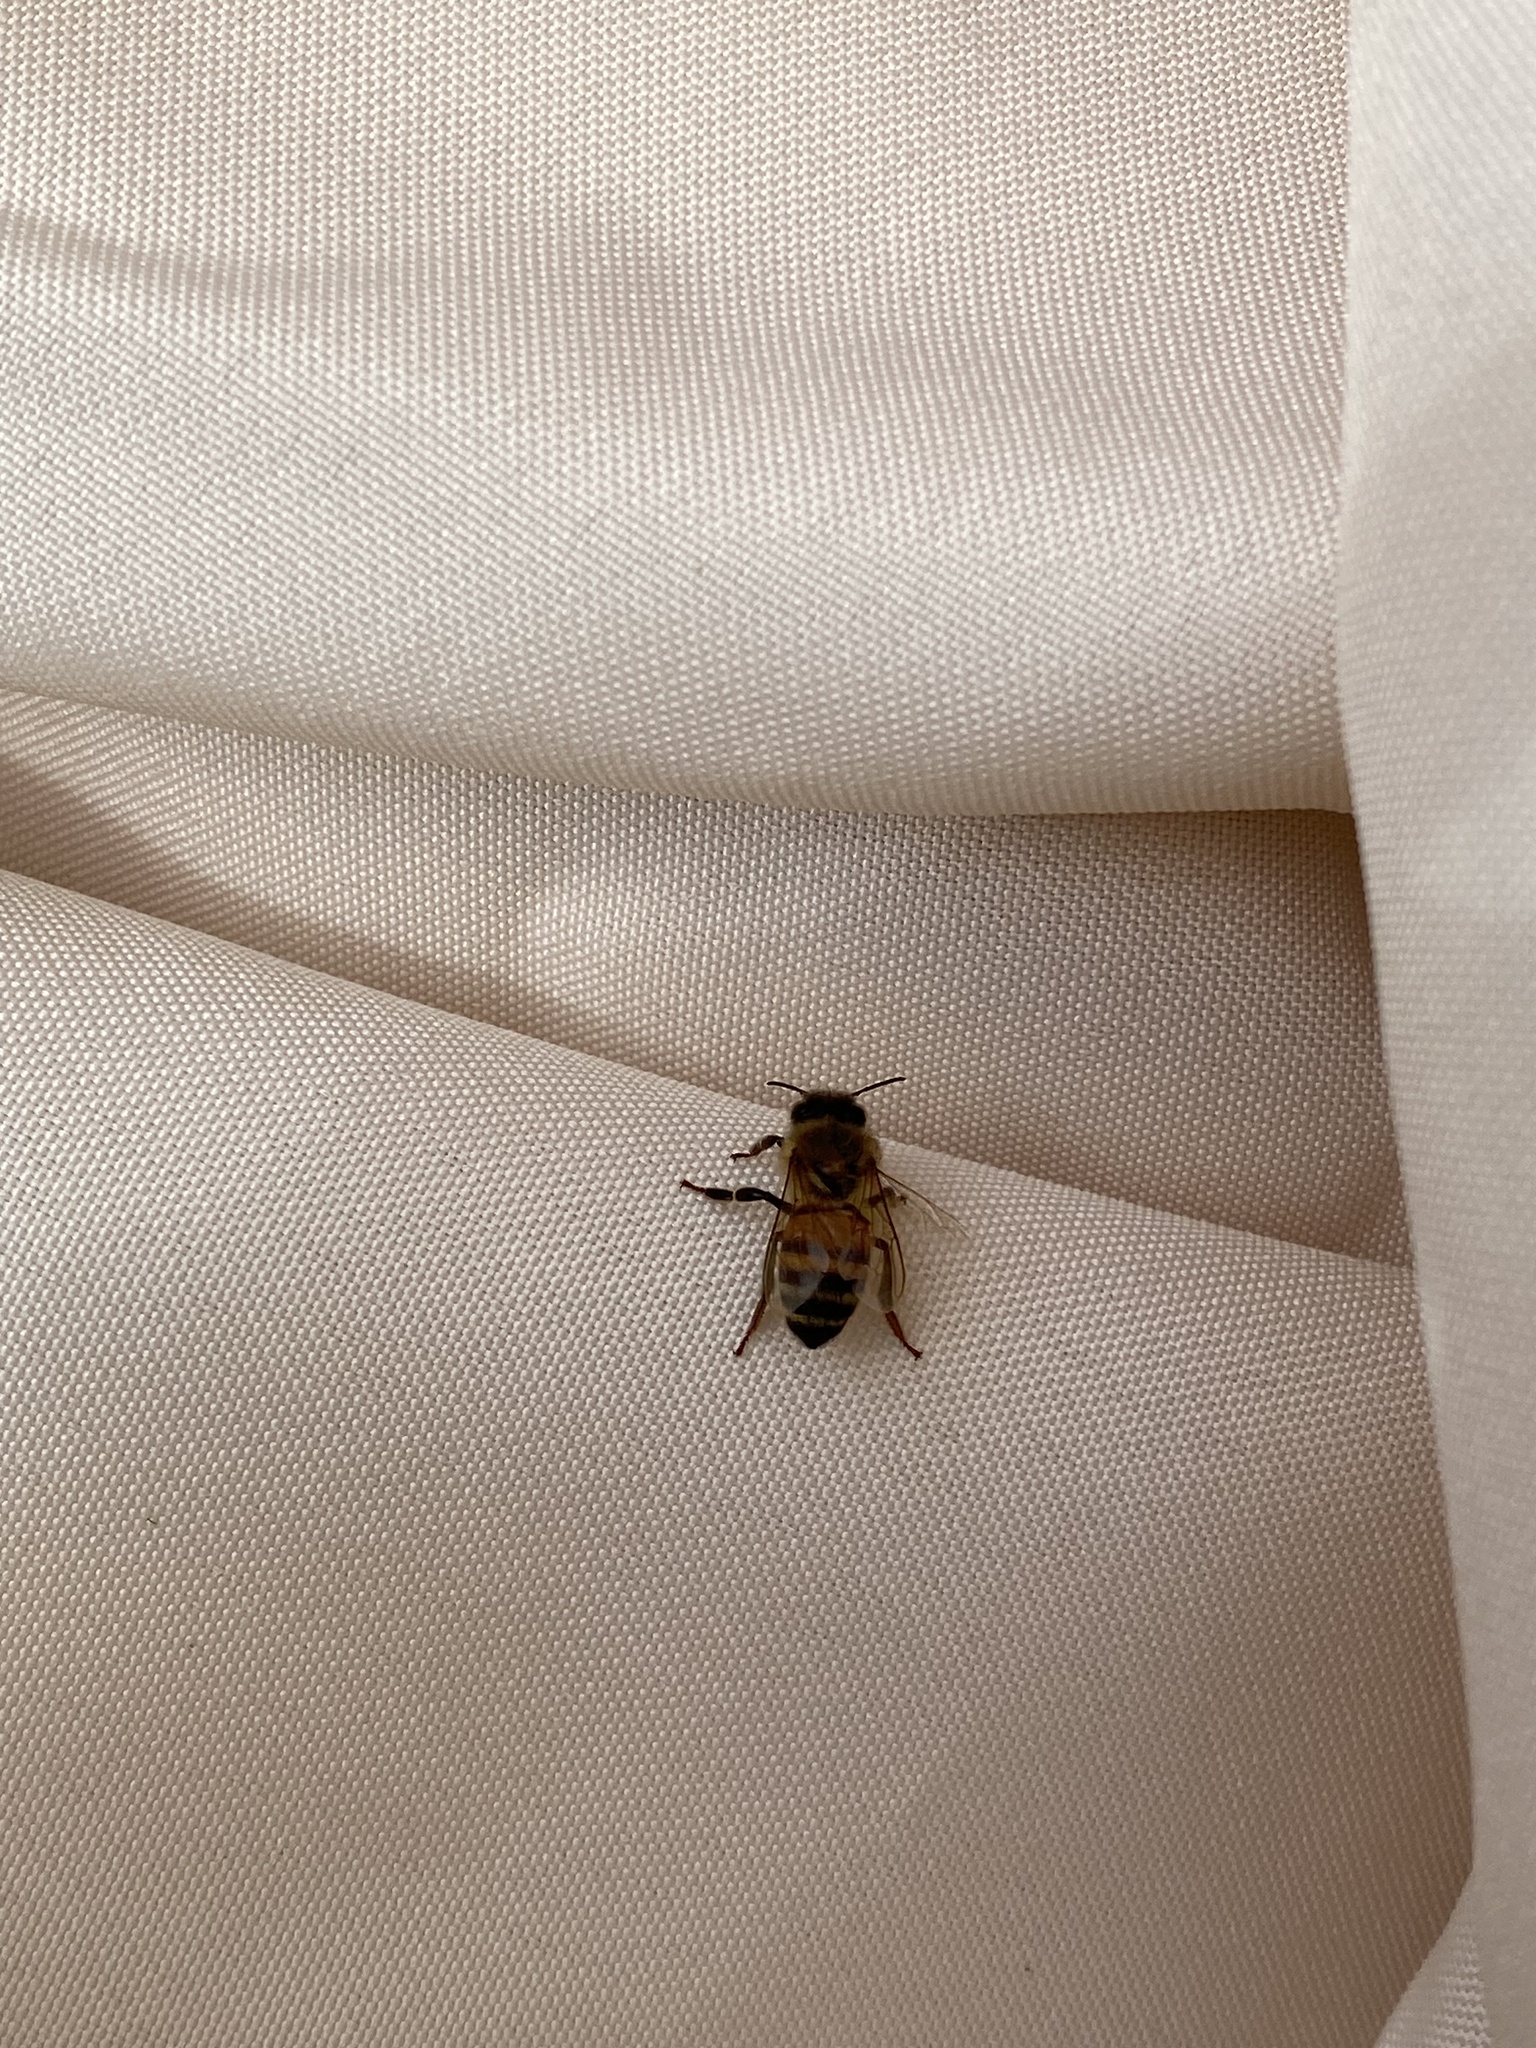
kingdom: Animalia
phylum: Arthropoda
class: Insecta
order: Hymenoptera
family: Apidae
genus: Apis
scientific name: Apis mellifera
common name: Honey bee
